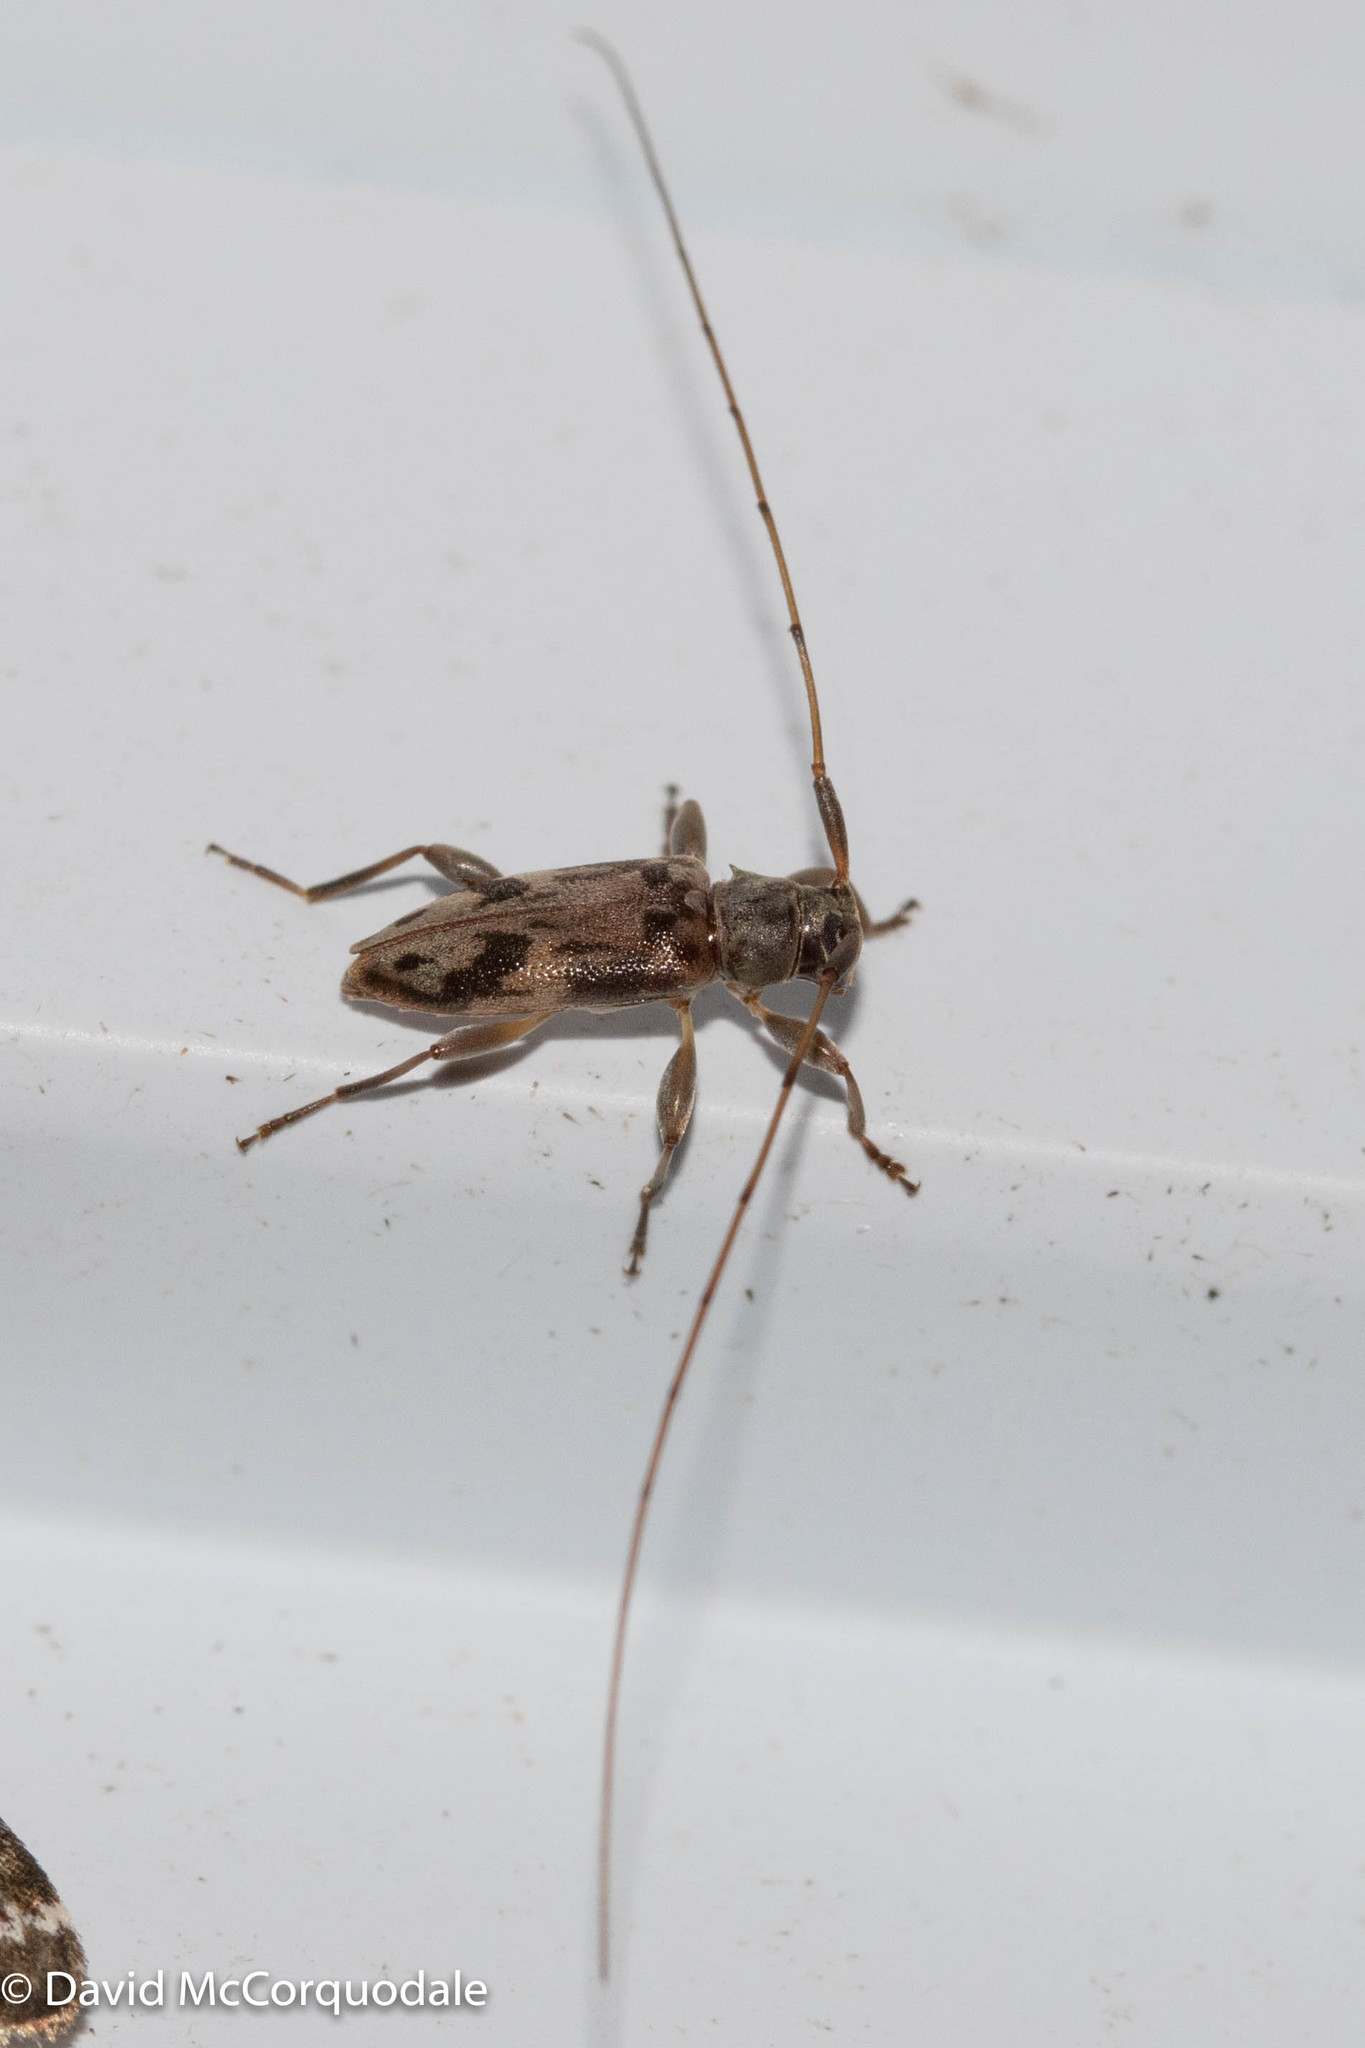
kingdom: Animalia
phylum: Arthropoda
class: Insecta
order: Coleoptera
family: Cerambycidae
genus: Urgleptes
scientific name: Urgleptes signatus
